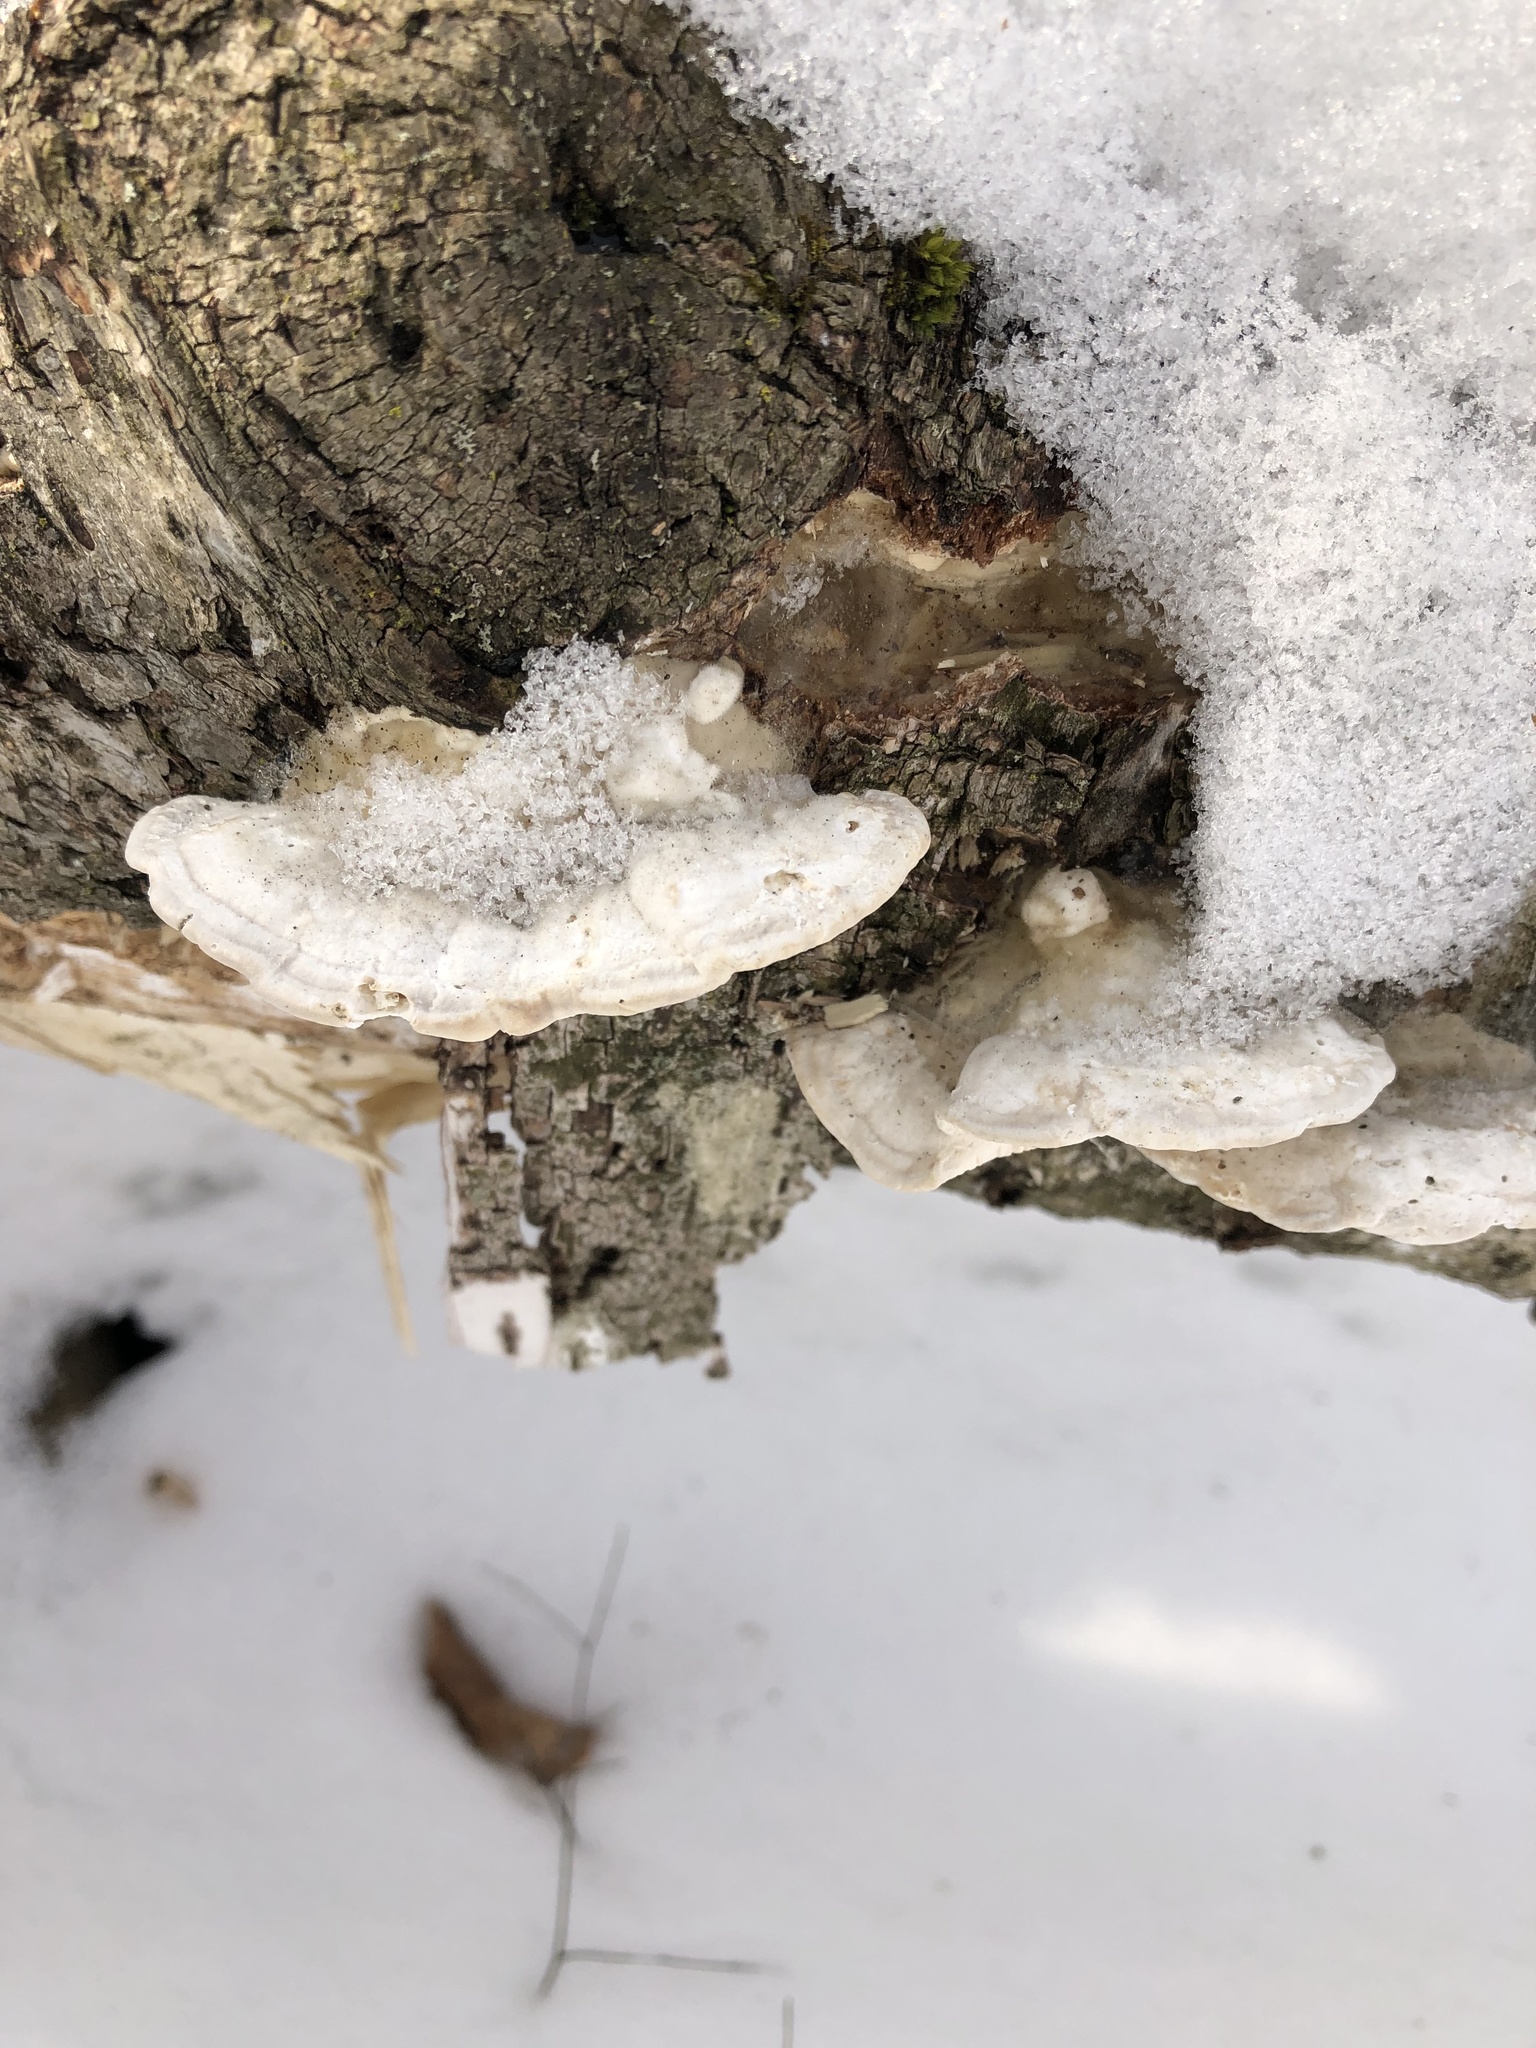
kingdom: Fungi
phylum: Basidiomycota
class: Agaricomycetes
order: Polyporales
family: Polyporaceae
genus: Trametes
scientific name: Trametes gibbosa
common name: Lumpy bracket
